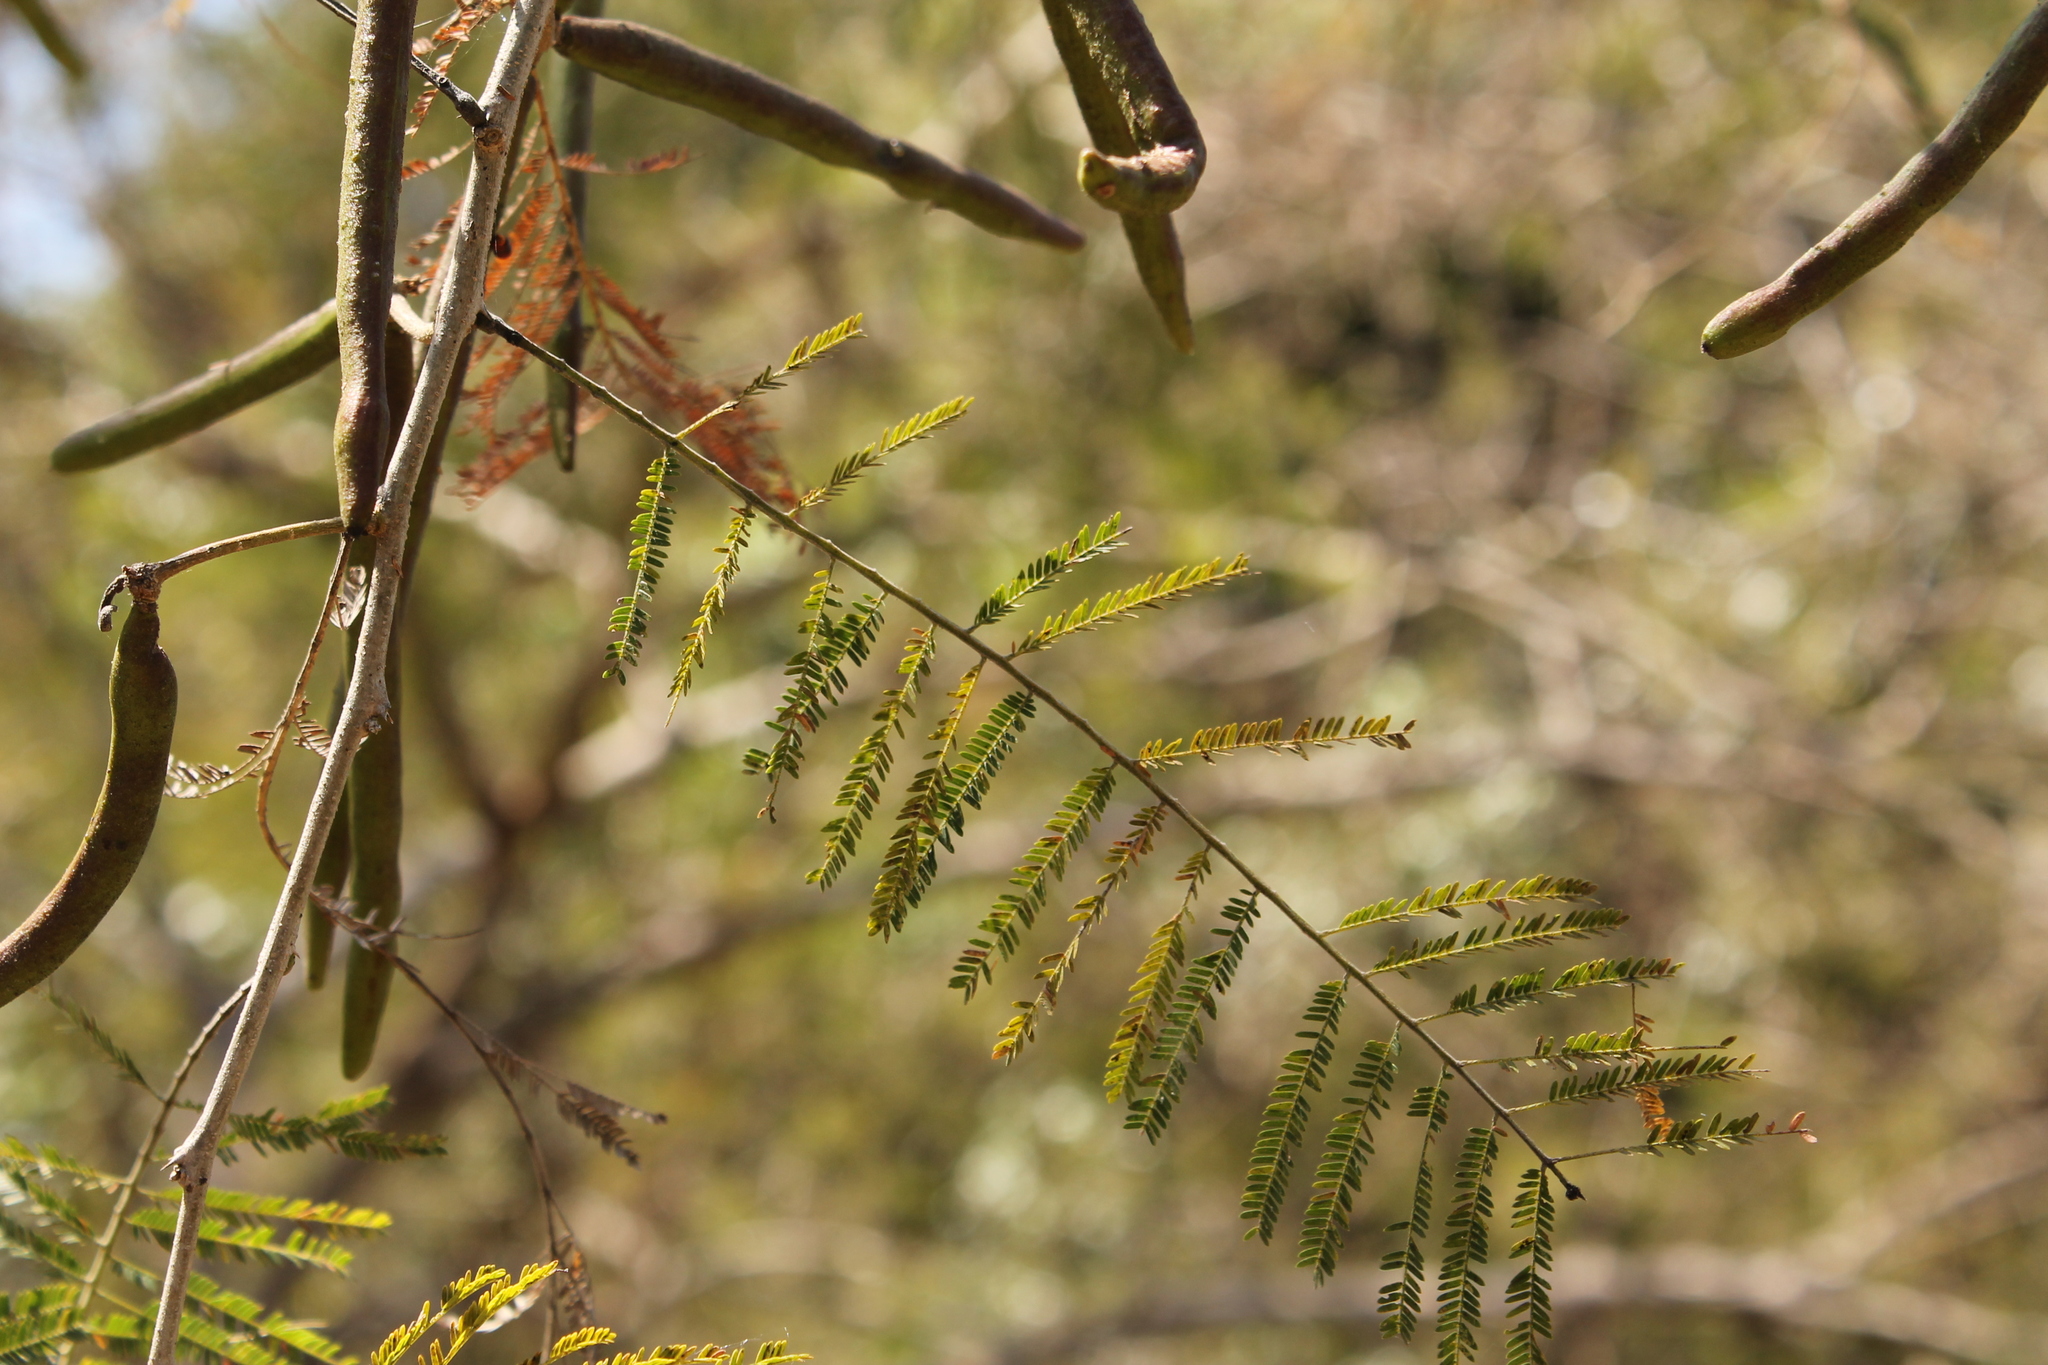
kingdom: Plantae
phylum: Tracheophyta
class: Magnoliopsida
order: Fabales
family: Fabaceae
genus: Vachellia
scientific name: Vachellia macracantha
